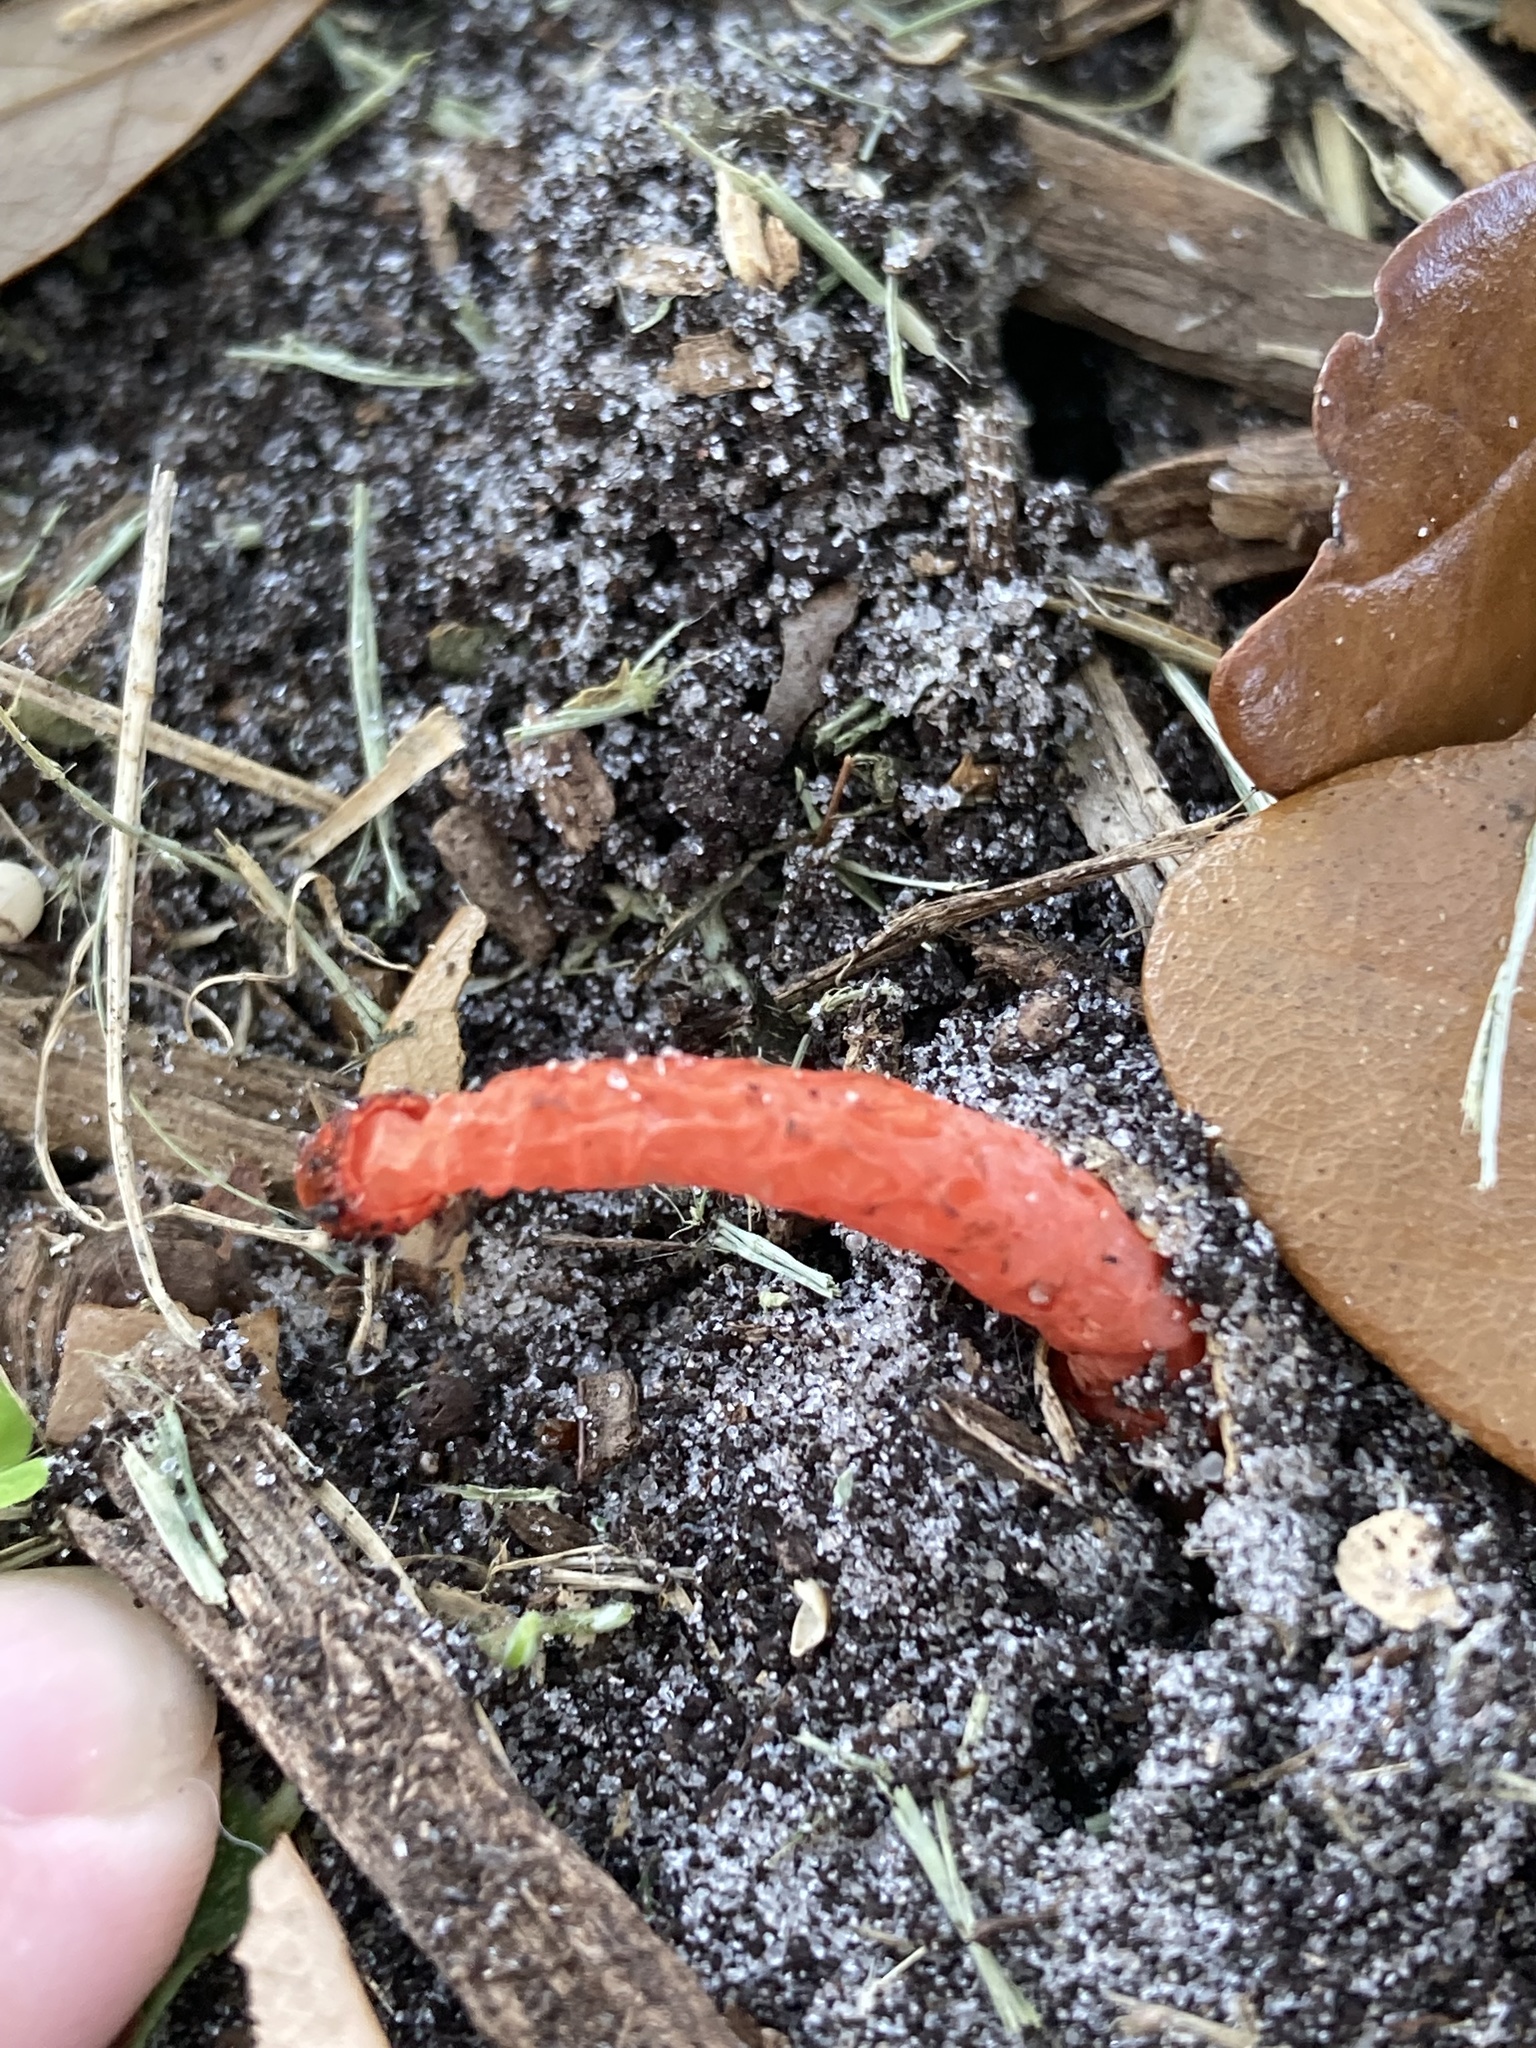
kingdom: Fungi
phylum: Basidiomycota
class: Agaricomycetes
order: Phallales
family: Phallaceae
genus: Phallus
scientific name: Phallus rugulosus
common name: Wrinkly stinkhorn
